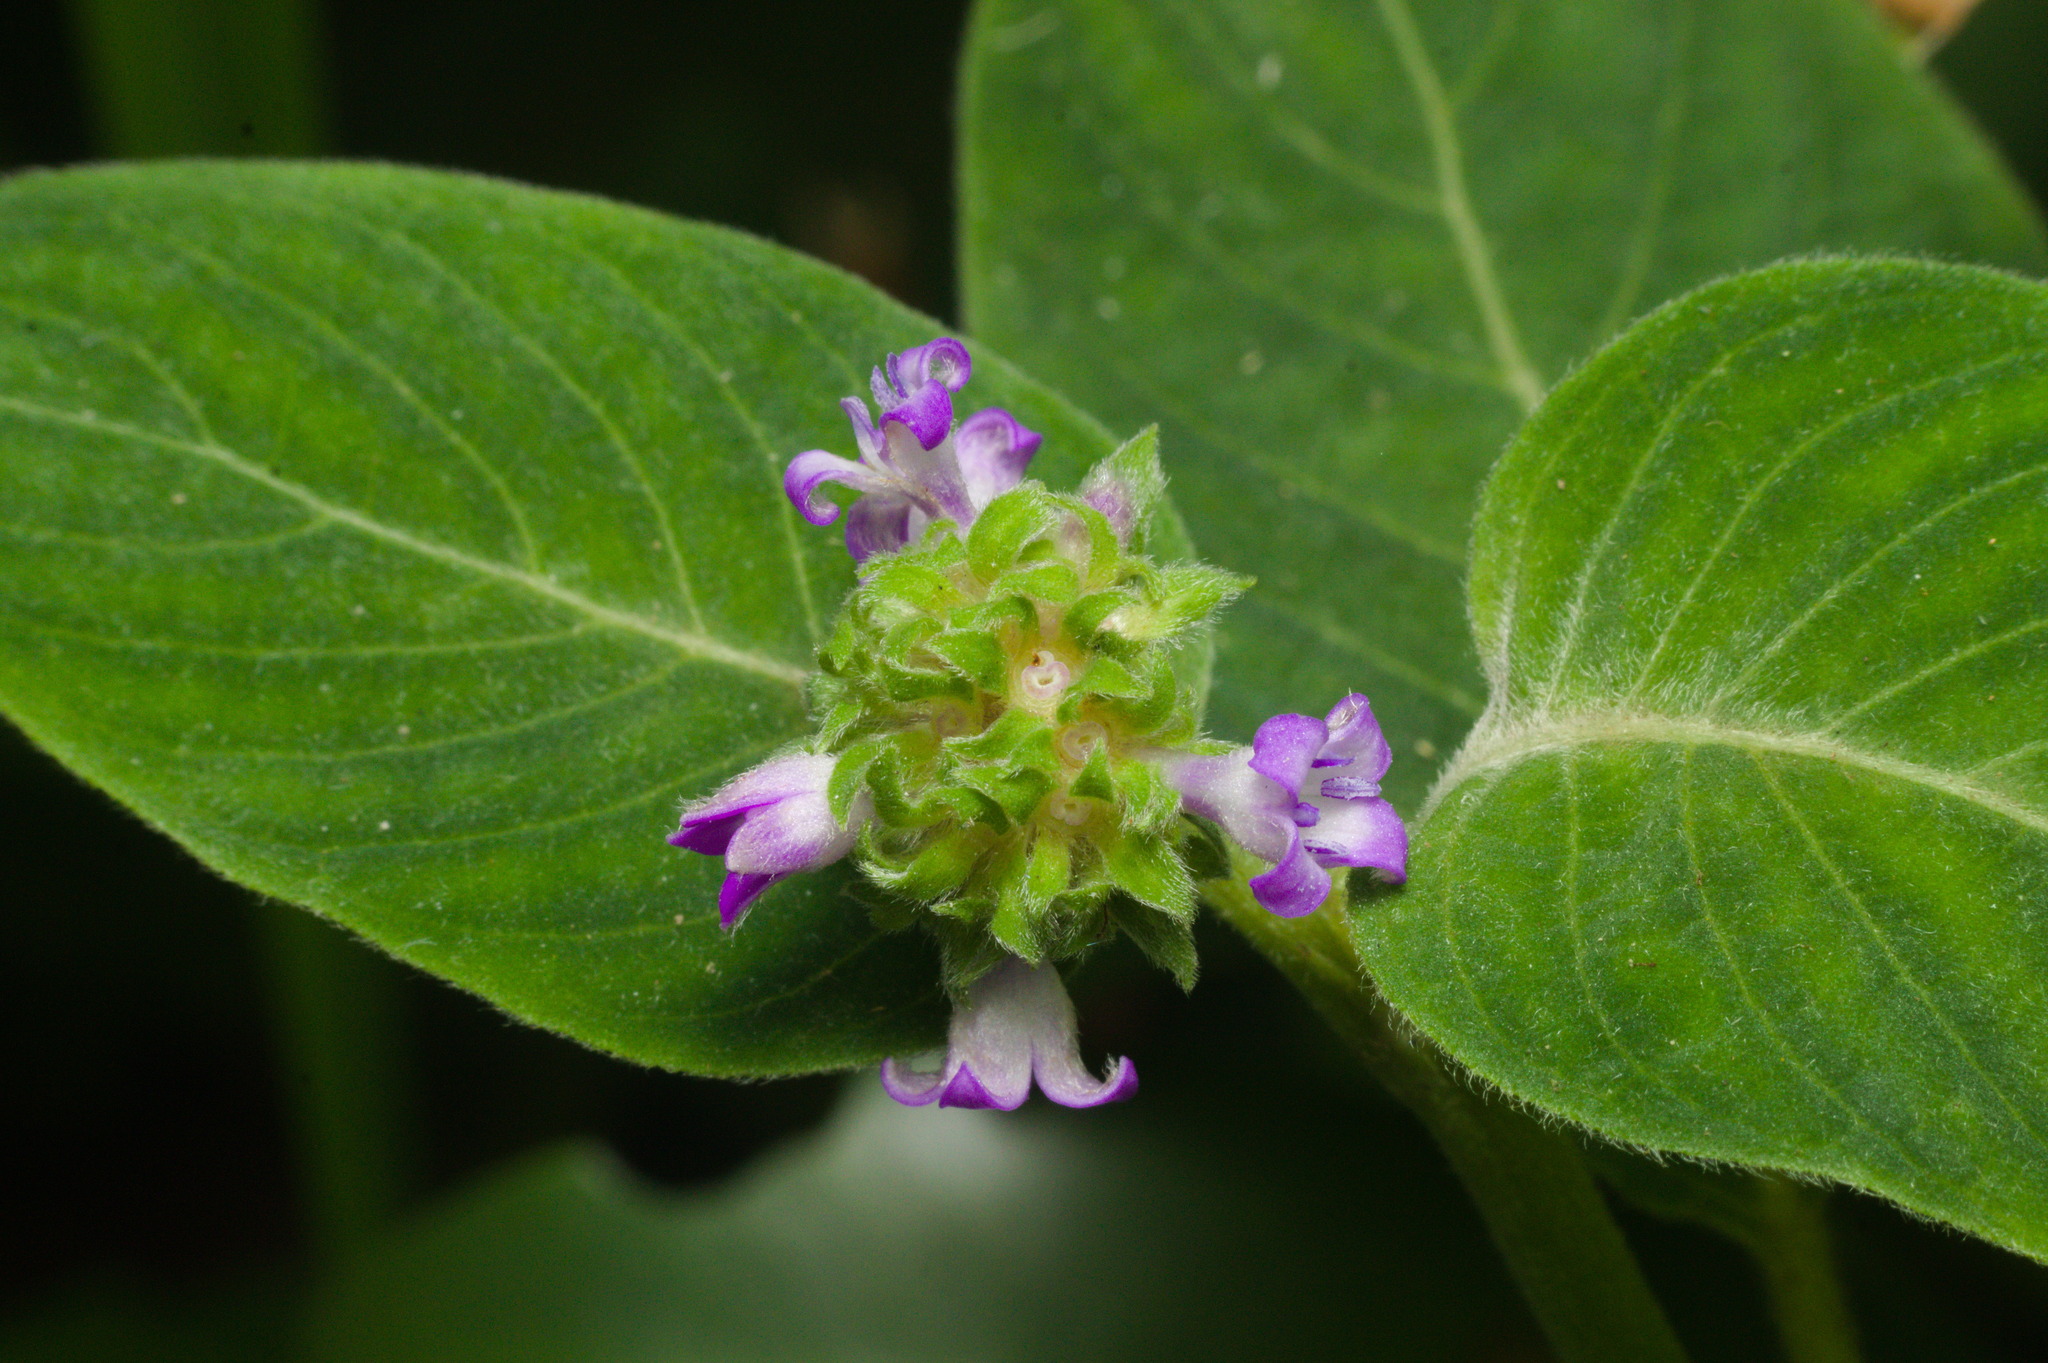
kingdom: Plantae
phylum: Tracheophyta
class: Magnoliopsida
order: Gentianales
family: Rubiaceae
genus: Coccocypselum
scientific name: Coccocypselum lanceolatum
